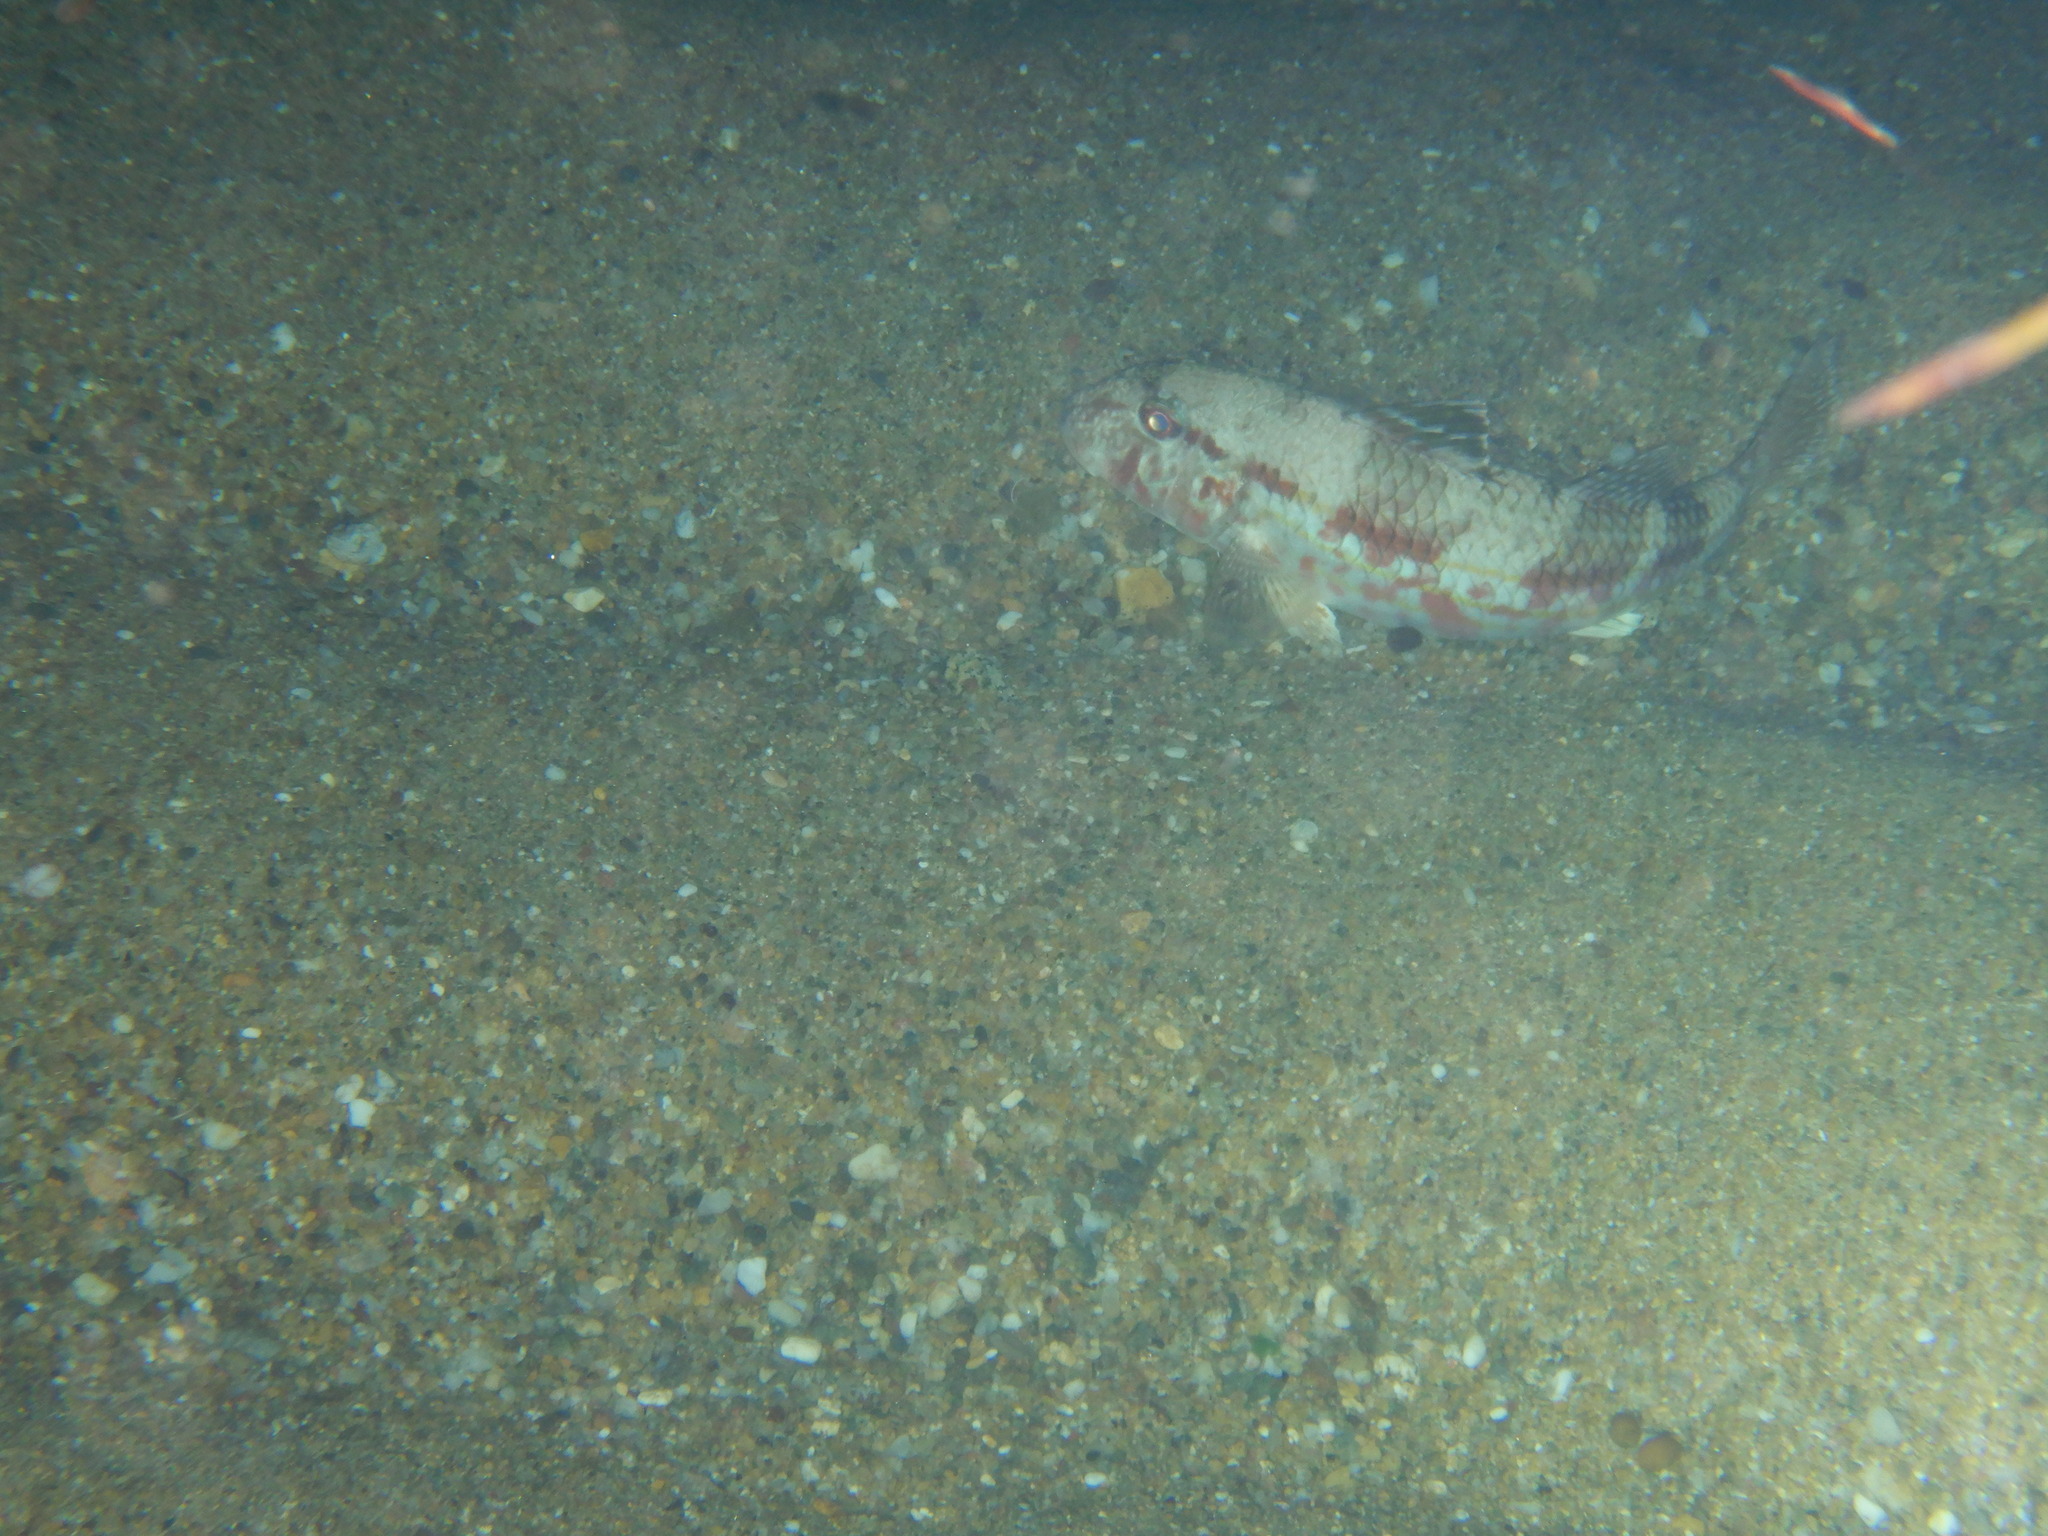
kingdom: Animalia
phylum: Chordata
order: Perciformes
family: Mullidae
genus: Mullus
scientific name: Mullus surmuletus
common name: Red mullet
